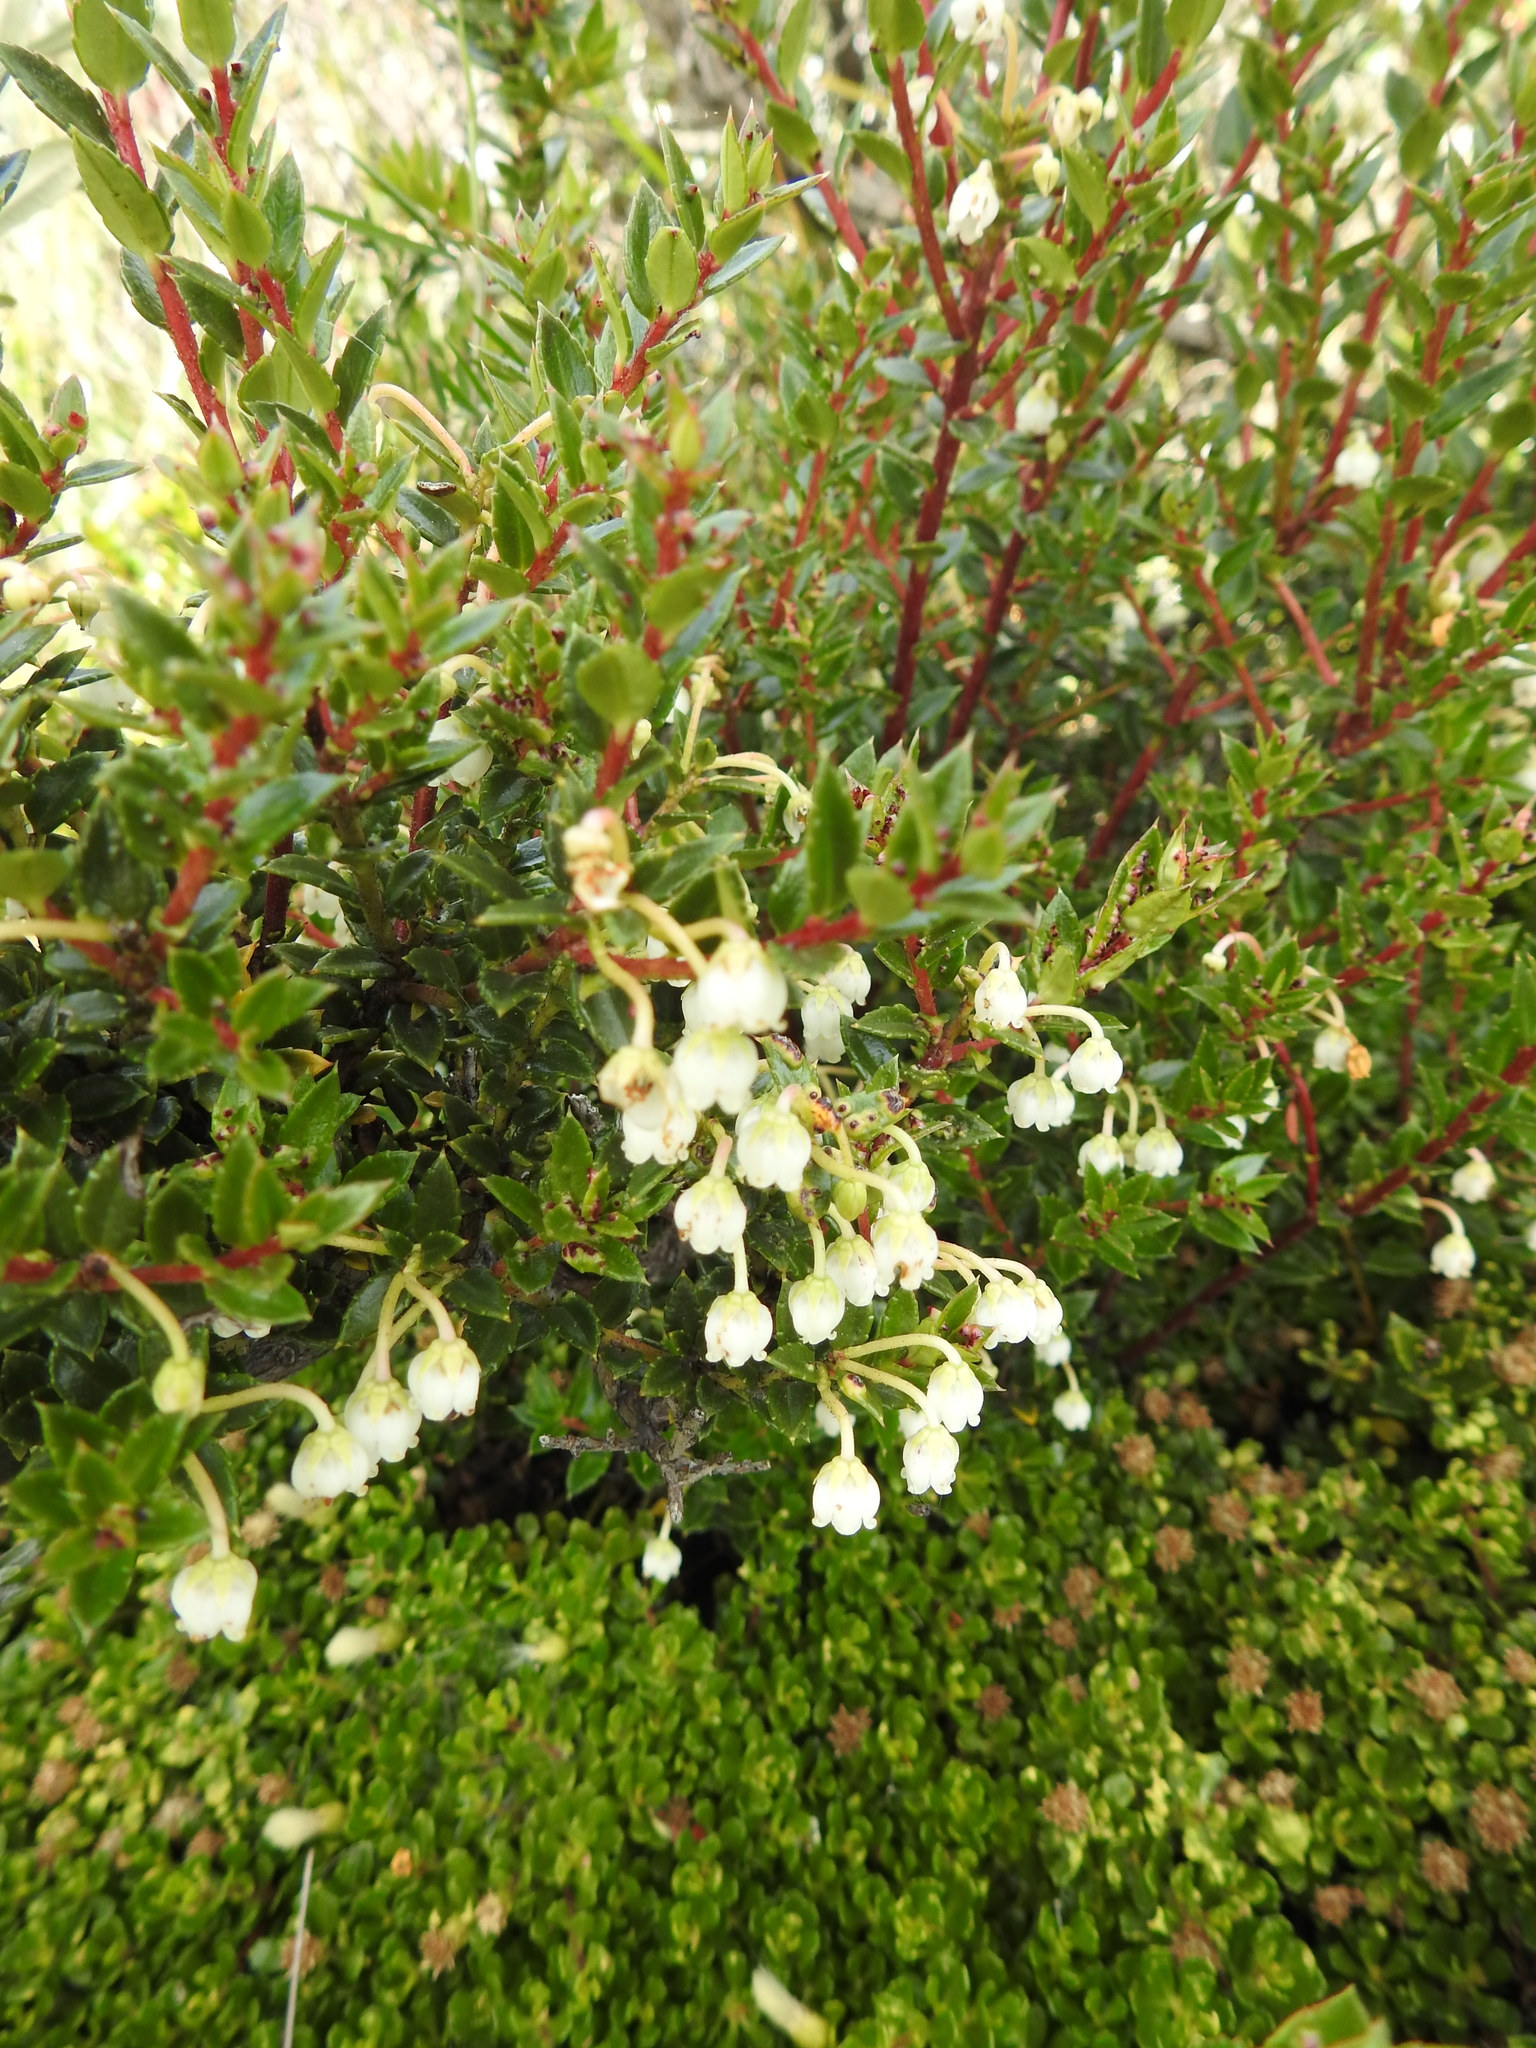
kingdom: Plantae
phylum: Tracheophyta
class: Magnoliopsida
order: Ericales
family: Ericaceae
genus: Gaultheria
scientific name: Gaultheria mucronata
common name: Prickly heath
